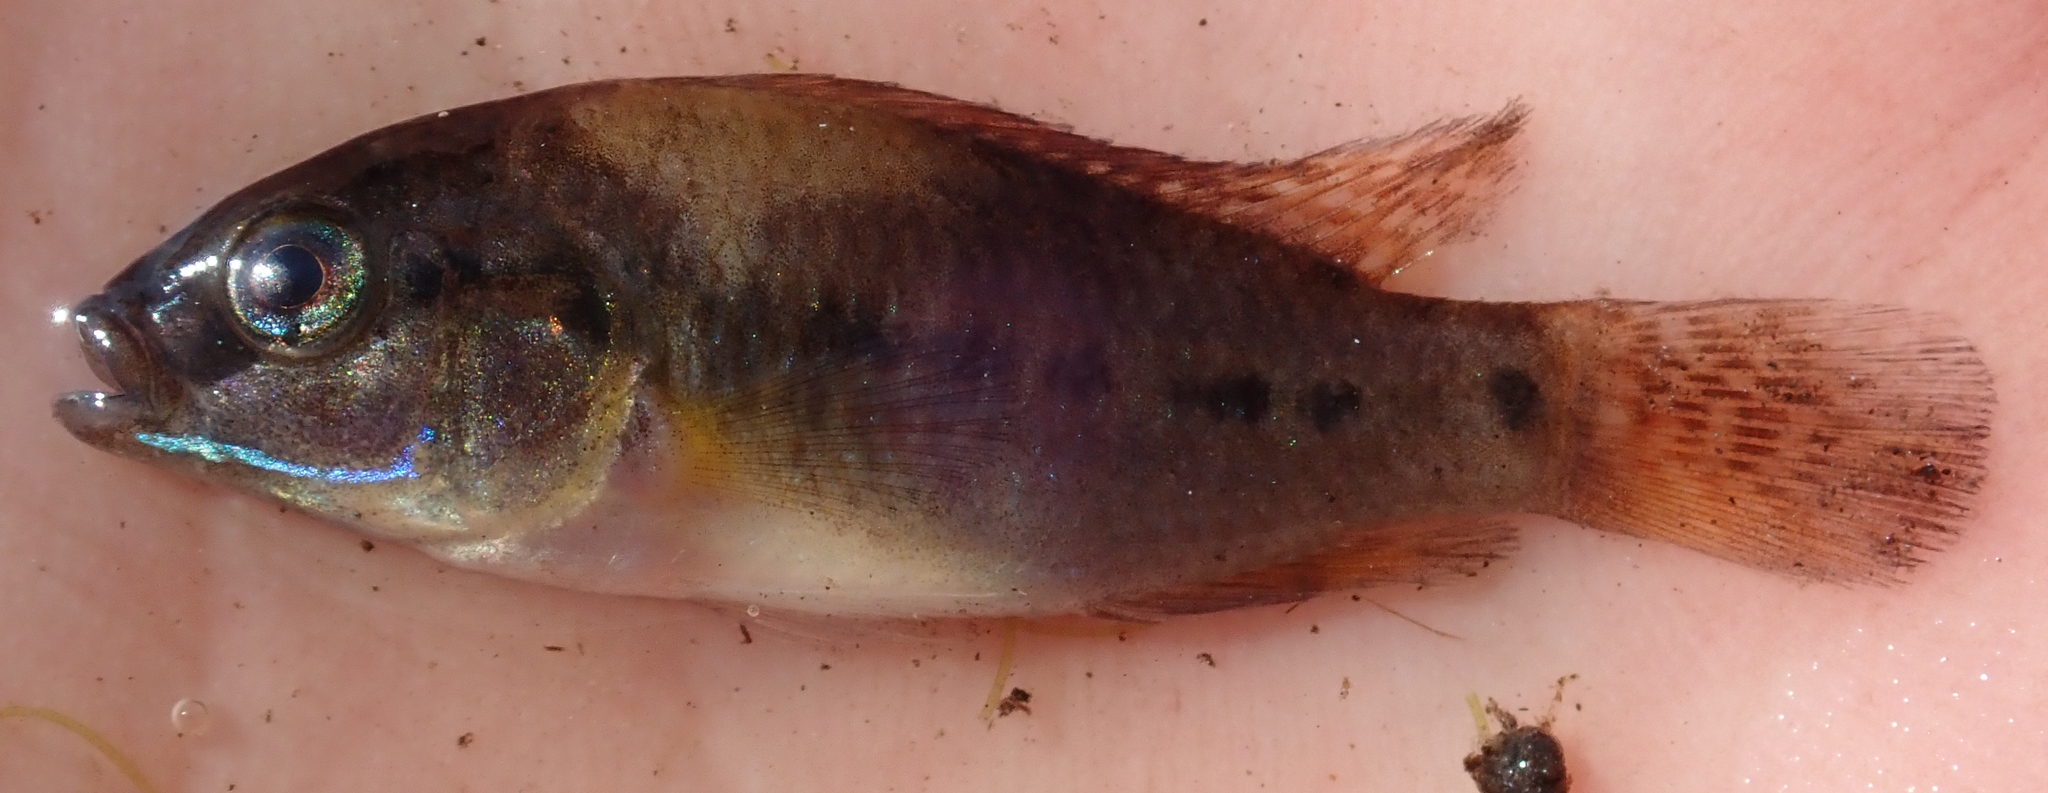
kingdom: Animalia
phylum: Chordata
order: Perciformes
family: Cichlidae
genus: Pseudocrenilabrus
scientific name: Pseudocrenilabrus philander
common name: Southern mouthbrooder
